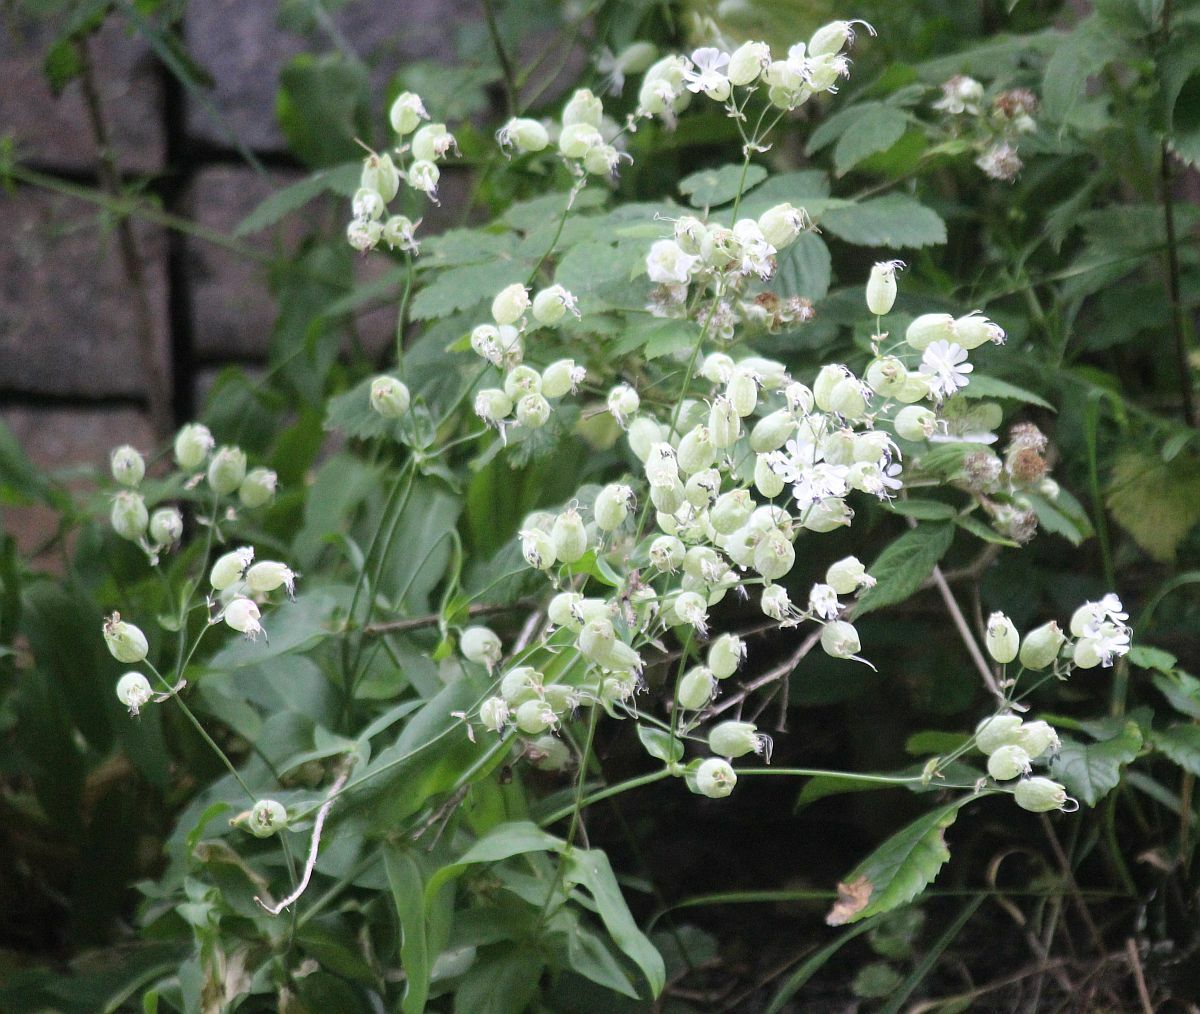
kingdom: Plantae
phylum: Tracheophyta
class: Magnoliopsida
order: Caryophyllales
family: Caryophyllaceae
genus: Silene
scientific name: Silene vulgaris
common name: Bladder campion
